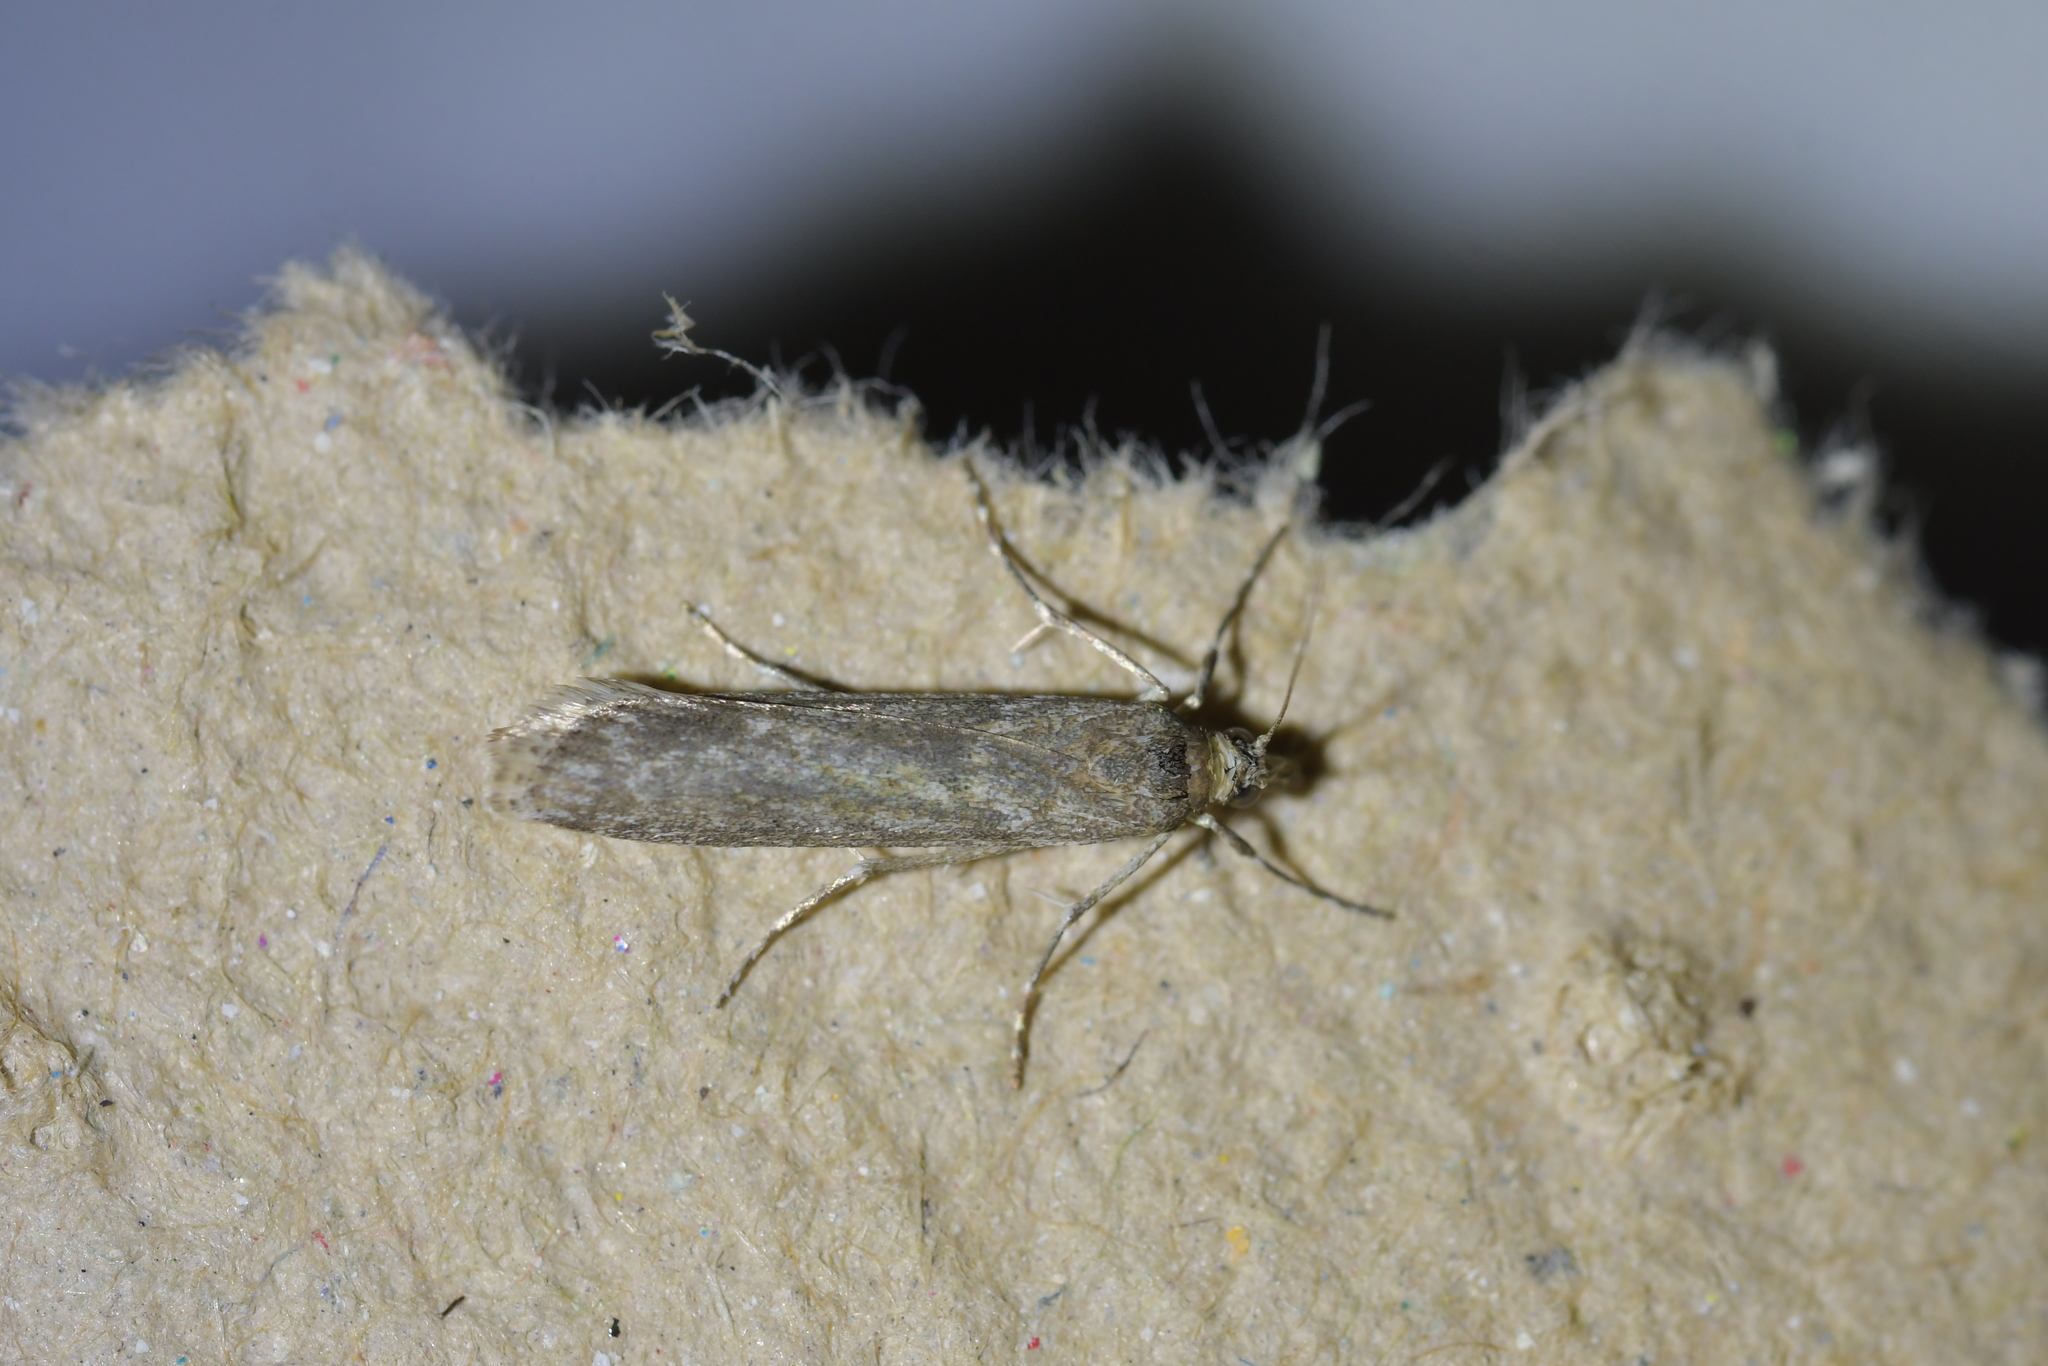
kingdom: Animalia
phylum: Arthropoda
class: Insecta
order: Lepidoptera
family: Crambidae
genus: Eudonia
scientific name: Eudonia leptalea
